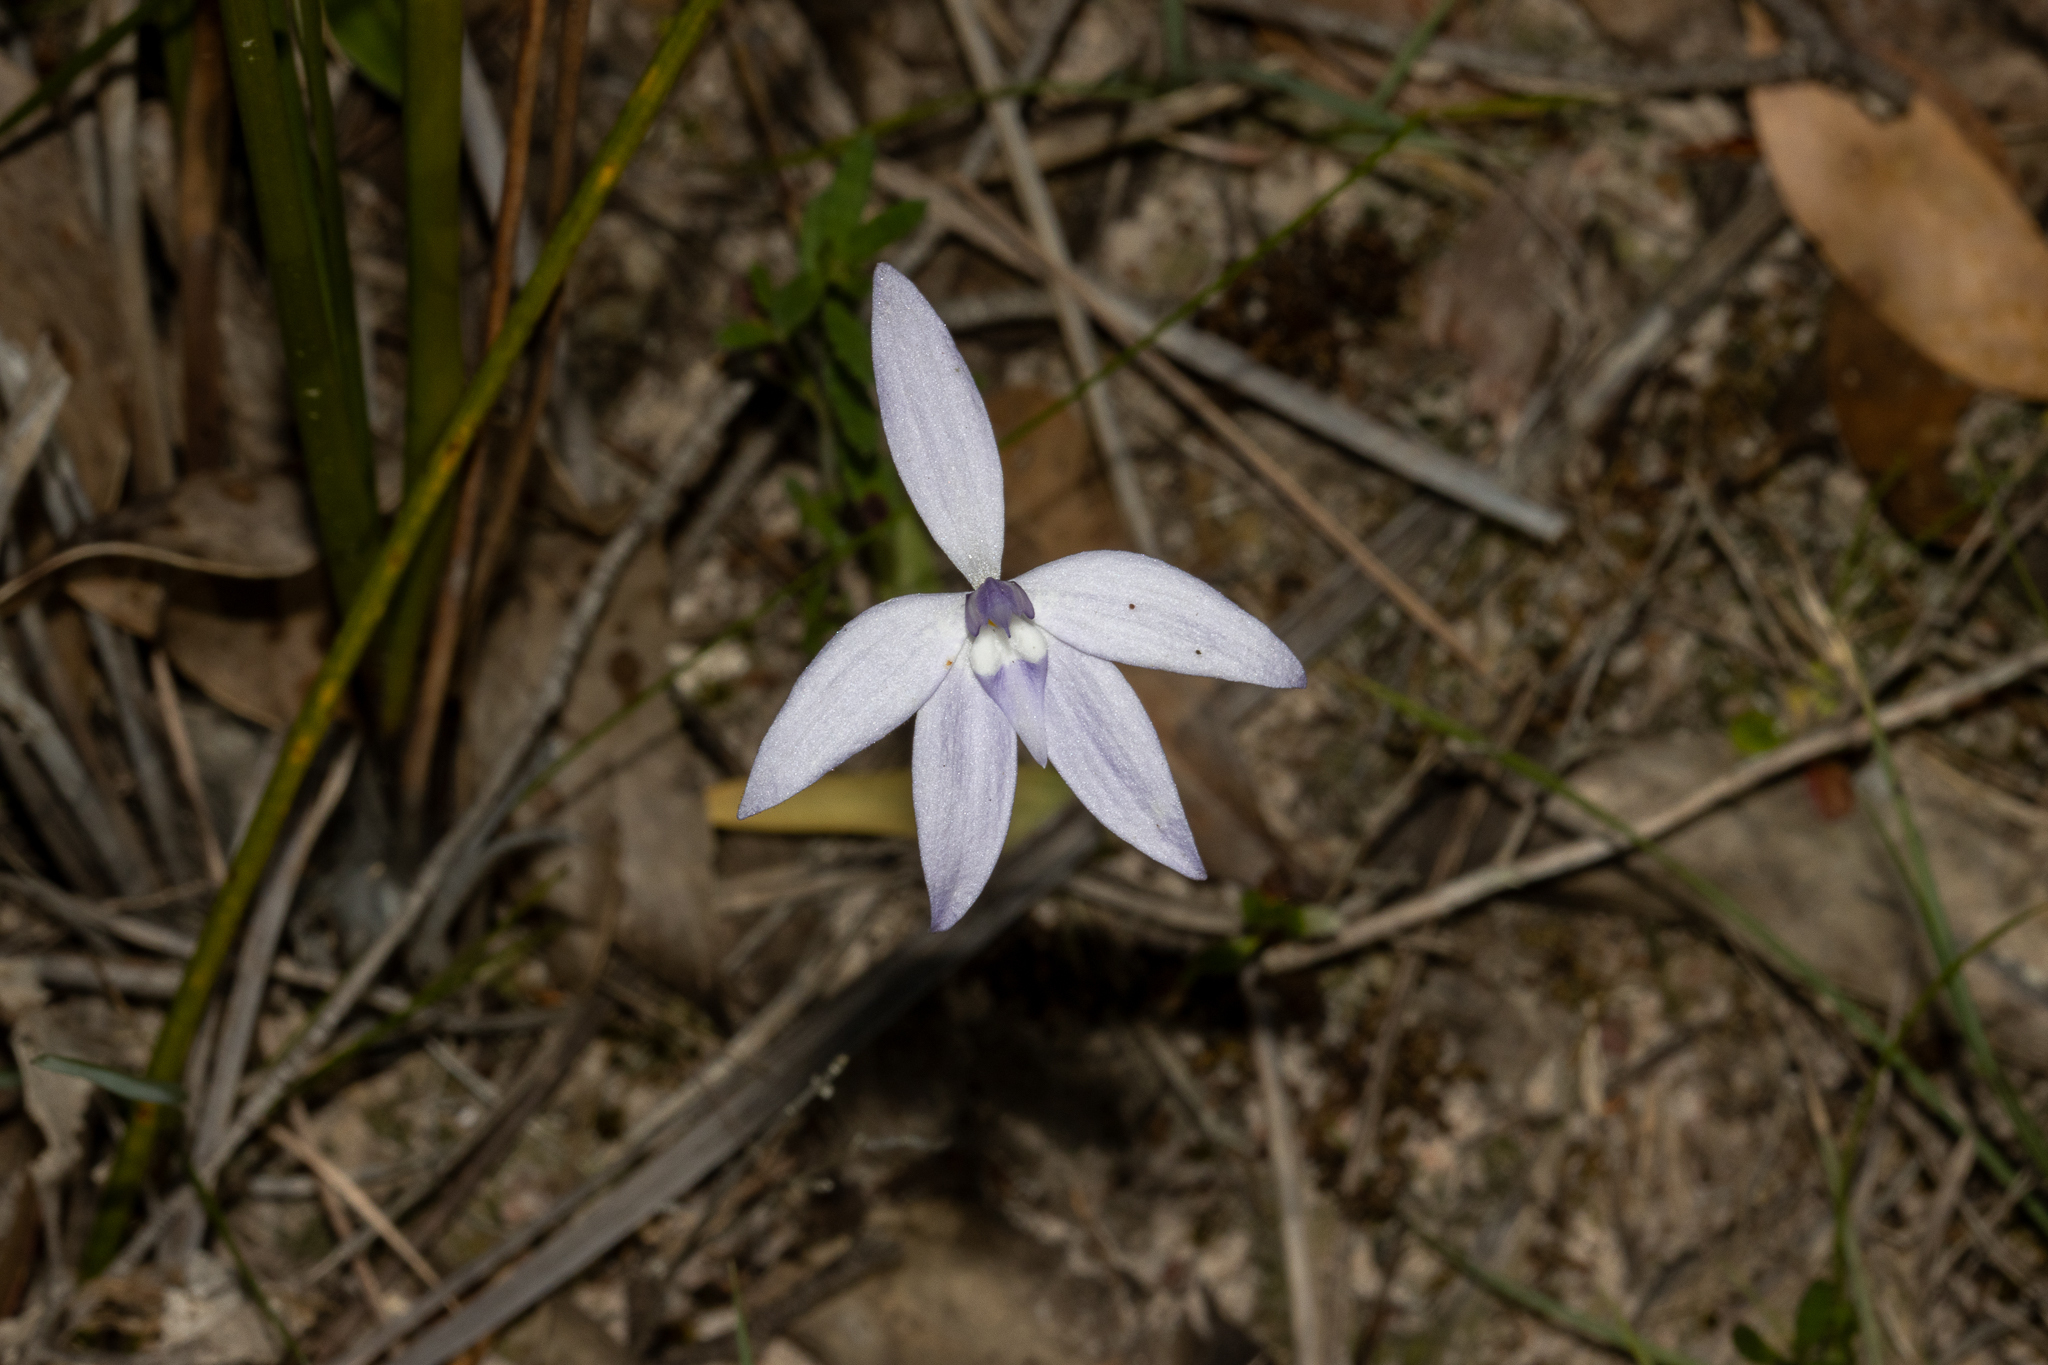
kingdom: Plantae
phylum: Tracheophyta
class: Liliopsida
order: Asparagales
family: Orchidaceae
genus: Caladenia
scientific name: Caladenia major
